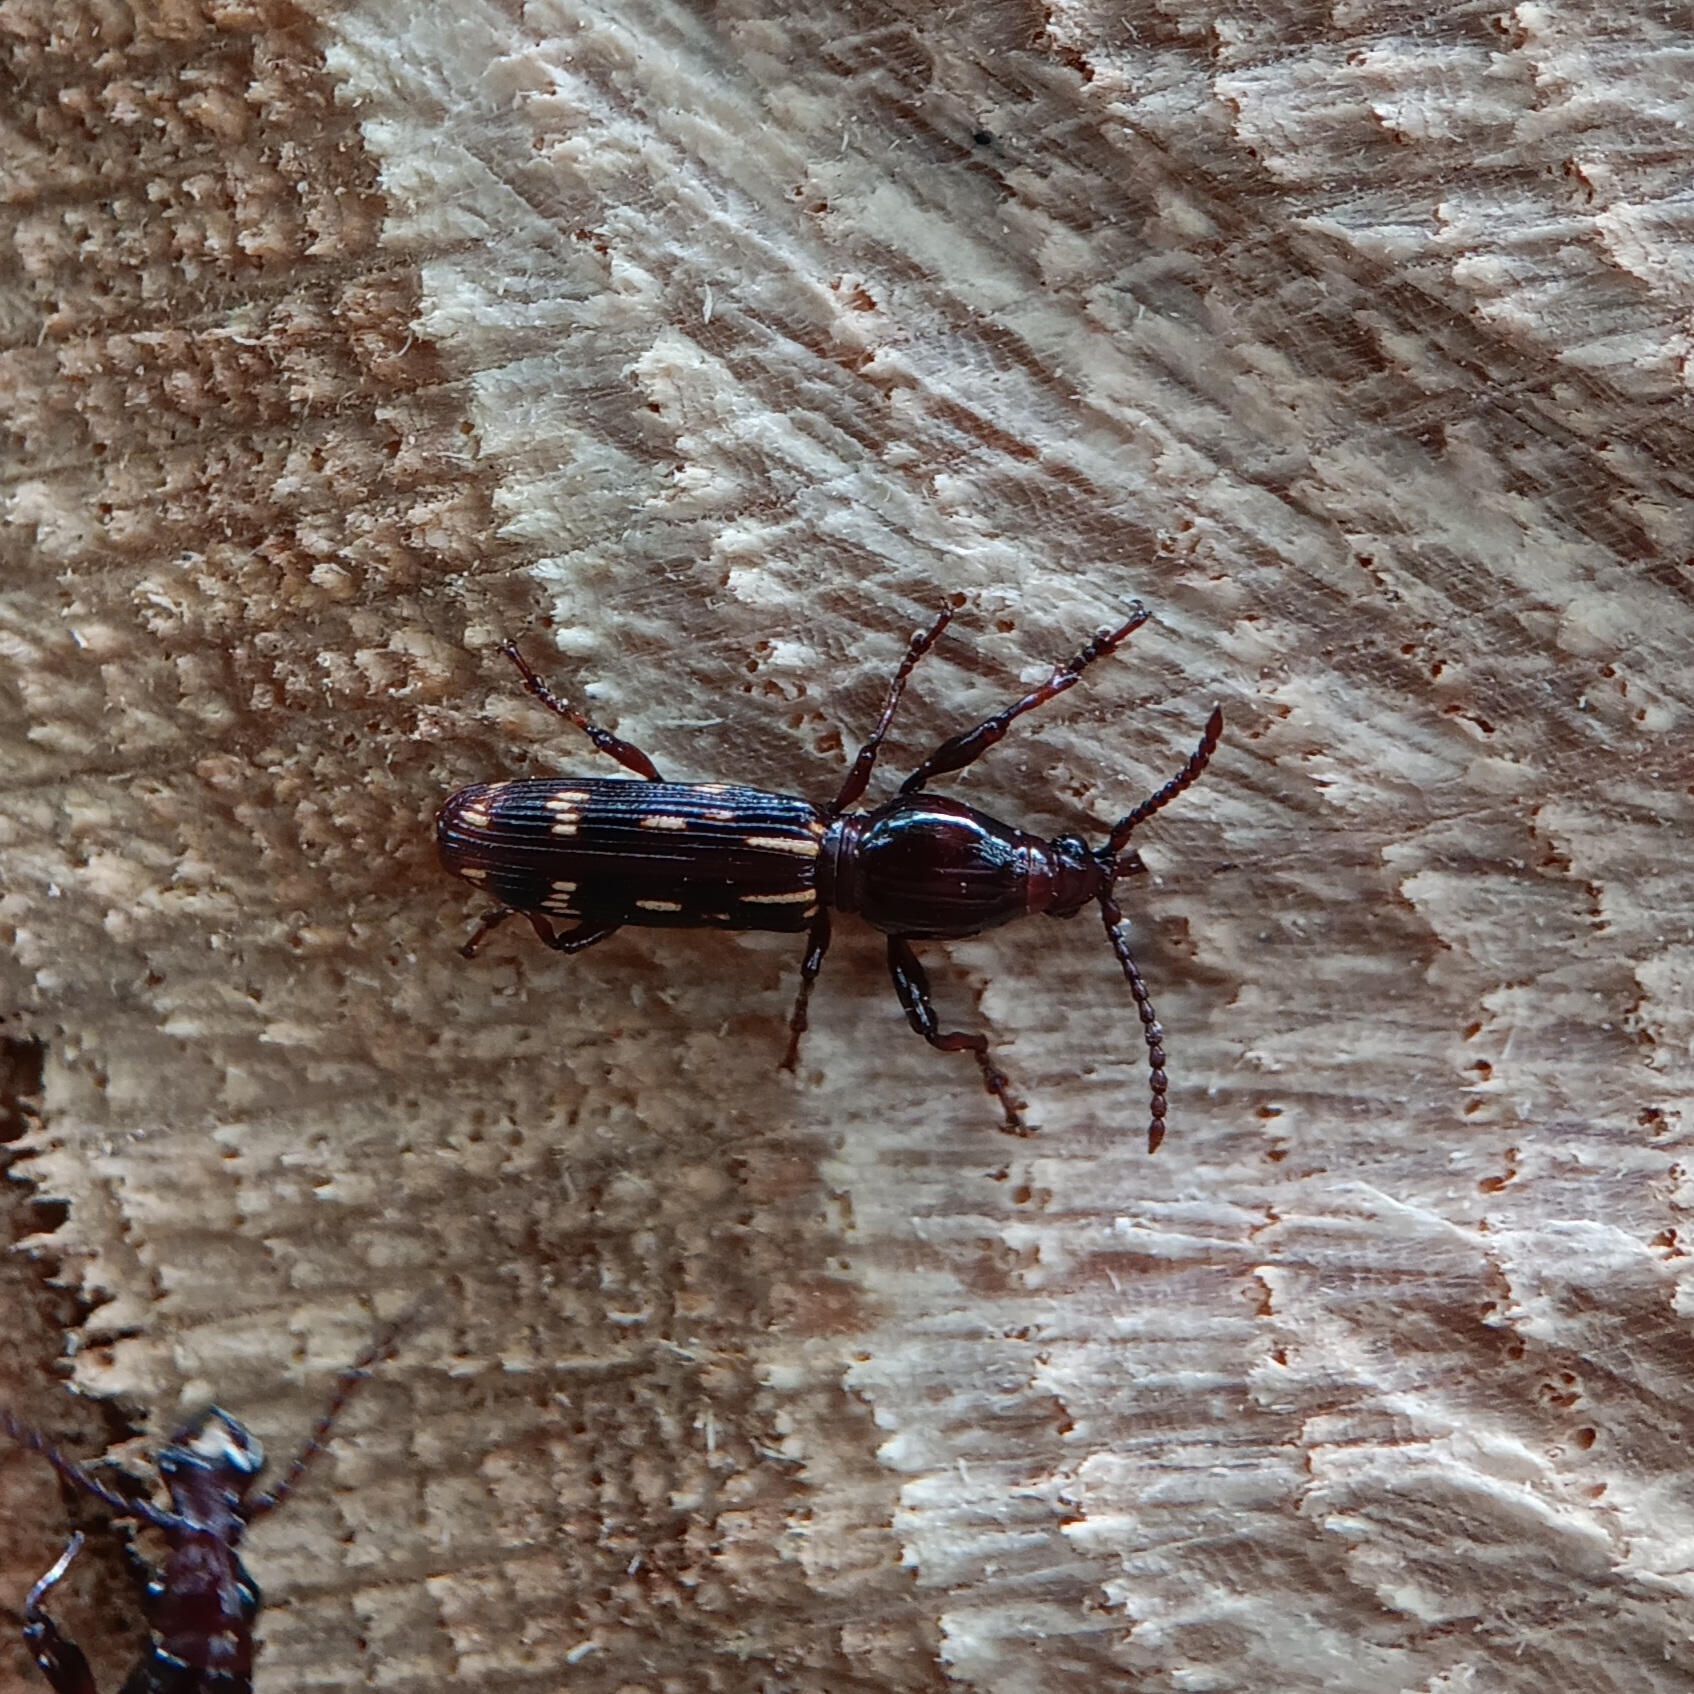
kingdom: Animalia
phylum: Arthropoda
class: Insecta
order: Coleoptera
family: Brentidae
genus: Arrenodes
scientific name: Arrenodes minutus
